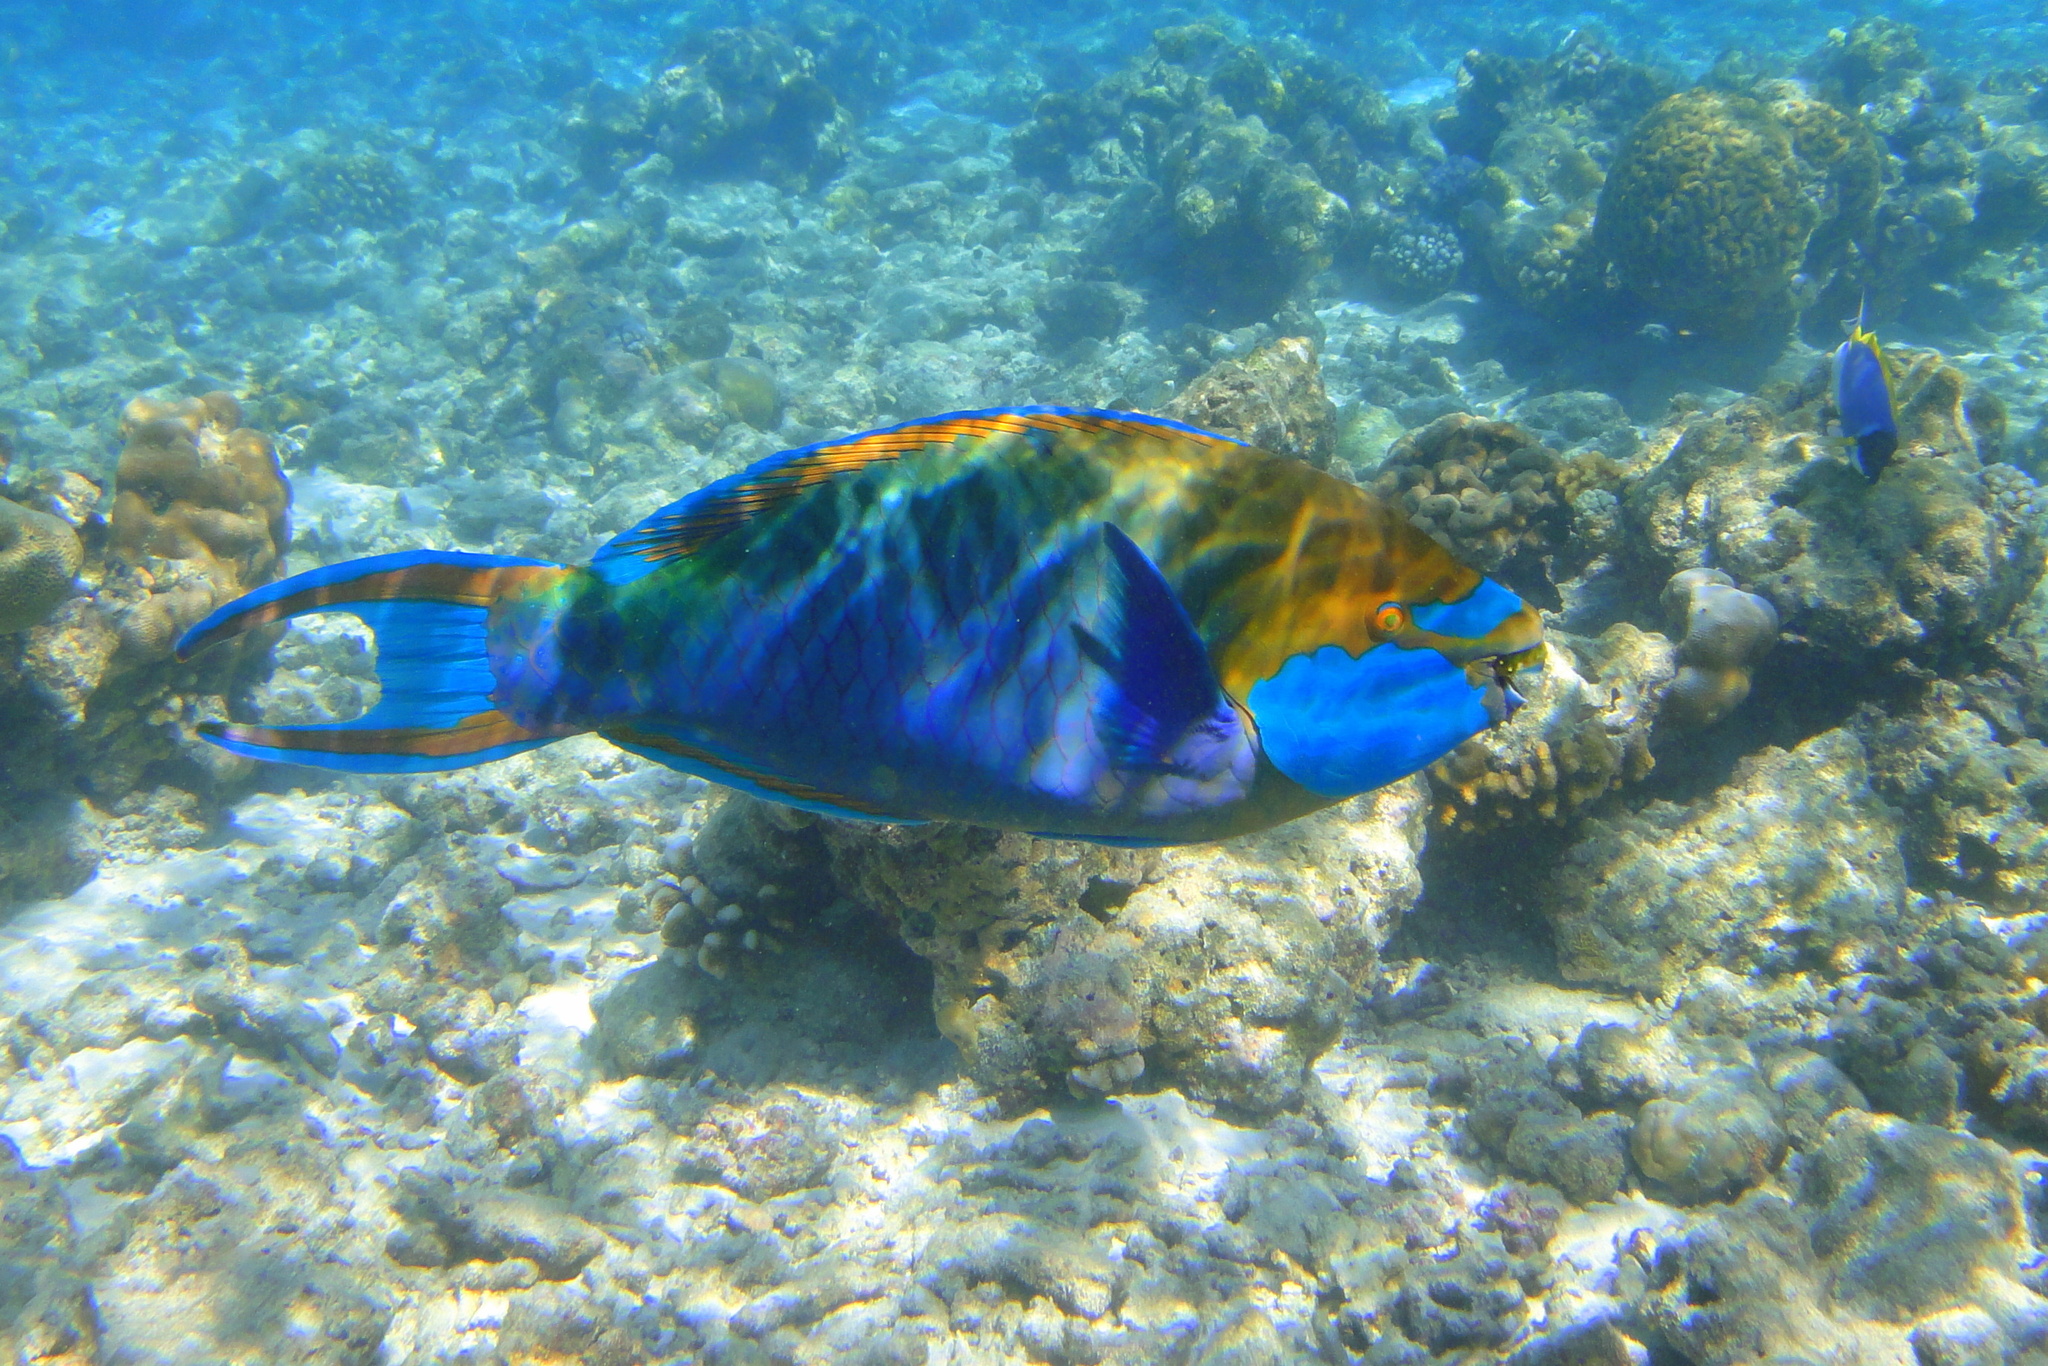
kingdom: Animalia
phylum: Chordata
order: Perciformes
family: Scaridae
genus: Scarus
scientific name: Scarus prasiognathos
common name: Singapore parrotfish
